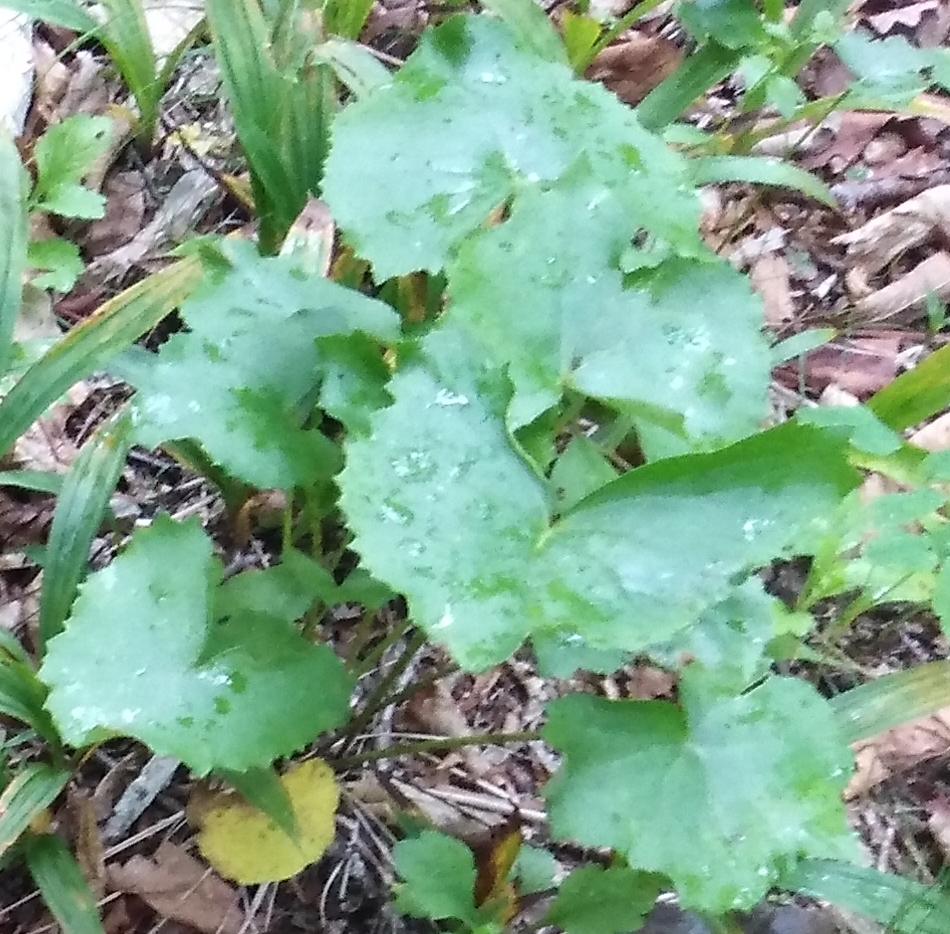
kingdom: Plantae
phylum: Tracheophyta
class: Magnoliopsida
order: Asterales
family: Asteraceae
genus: Ligularia
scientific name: Ligularia calthifolia
